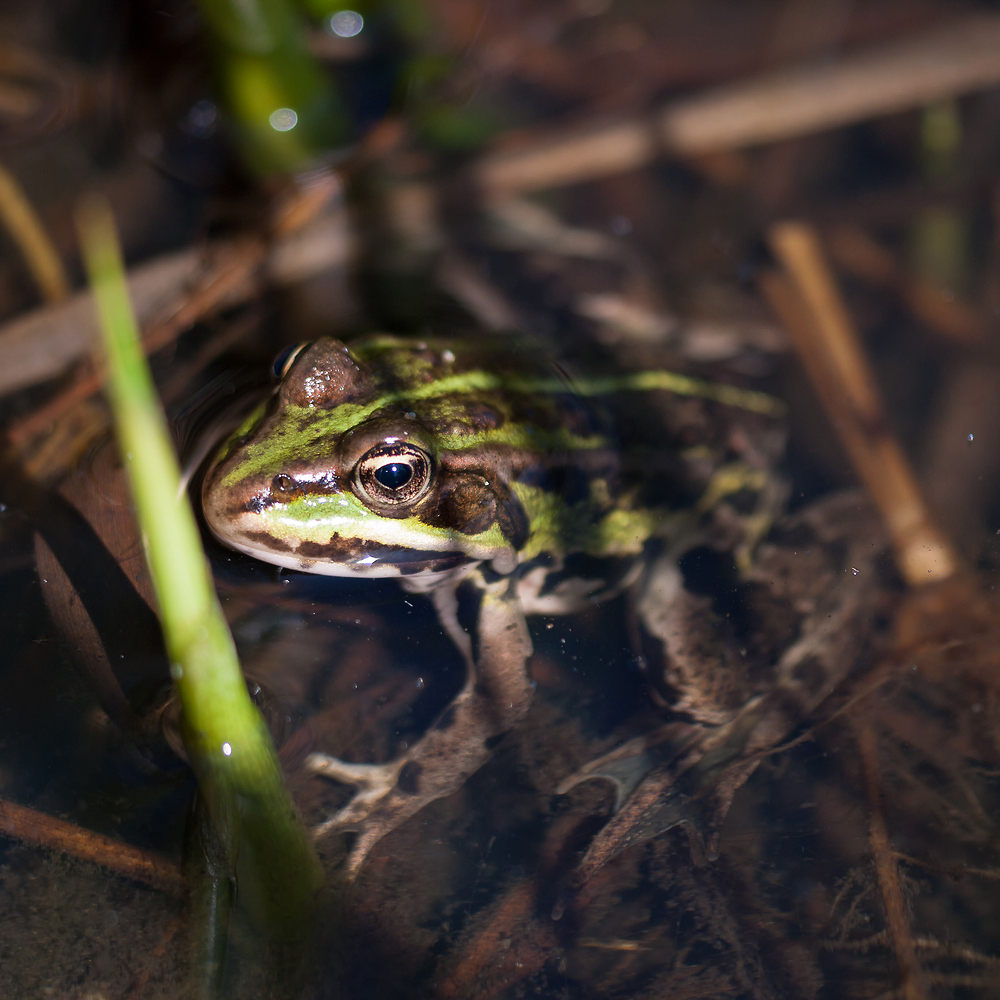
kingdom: Animalia
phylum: Chordata
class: Amphibia
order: Anura
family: Ranidae
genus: Pelophylax
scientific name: Pelophylax lessonae
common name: Pool frog
